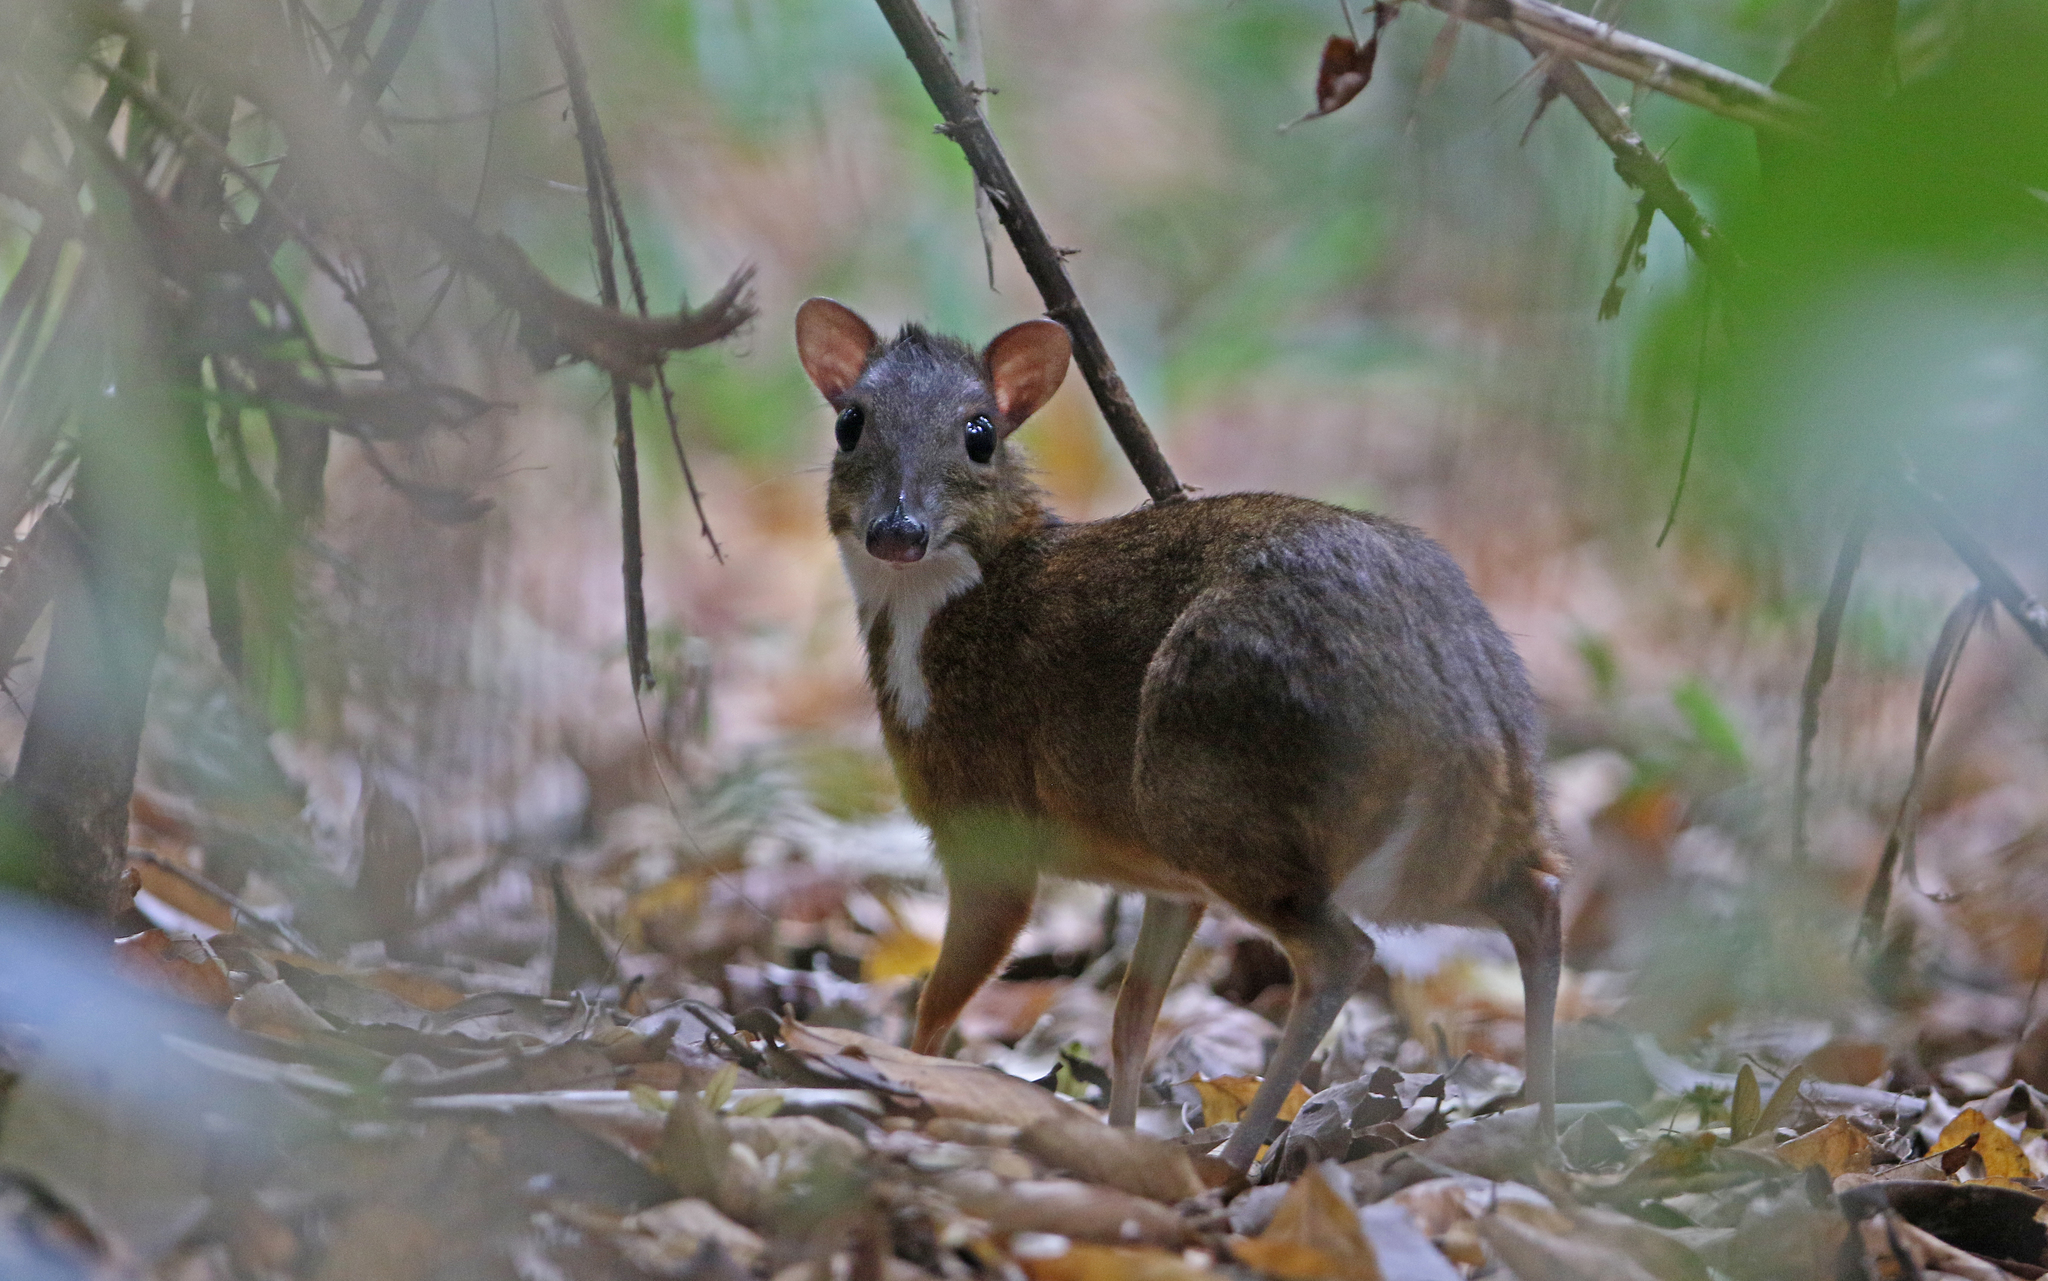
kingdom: Animalia
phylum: Chordata
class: Mammalia
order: Artiodactyla
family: Tragulidae
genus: Tragulus
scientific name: Tragulus kanchil
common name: Lesser mouse-deer
